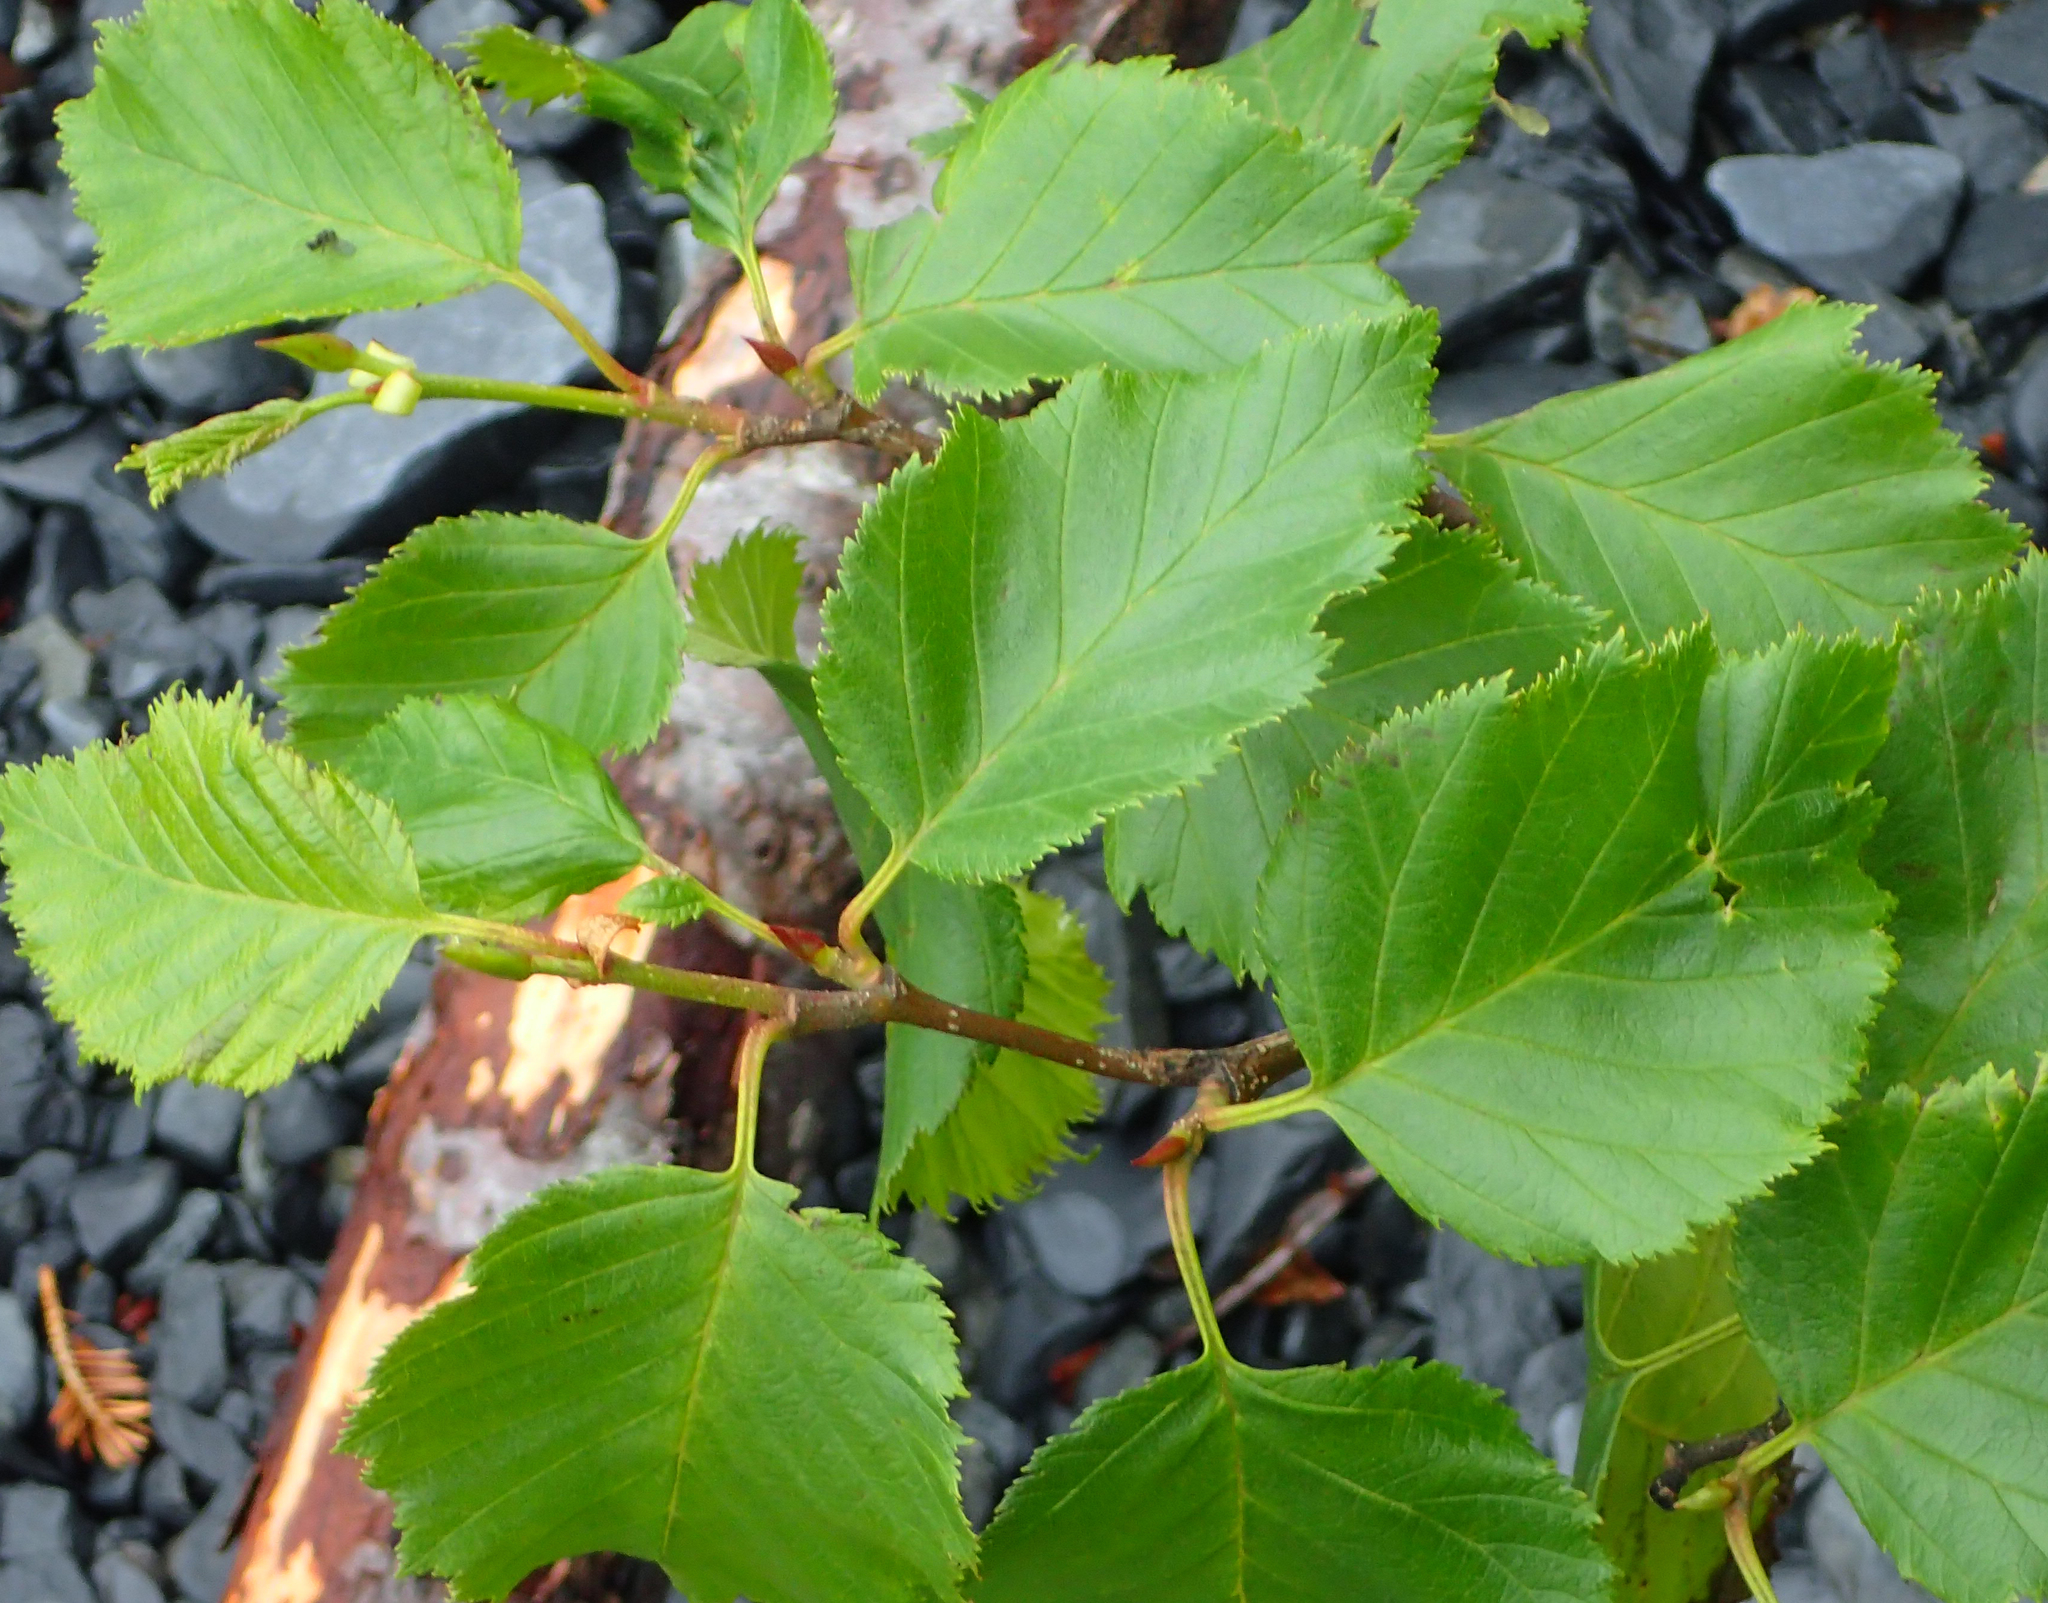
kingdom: Plantae
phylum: Tracheophyta
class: Magnoliopsida
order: Fagales
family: Betulaceae
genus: Alnus
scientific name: Alnus alnobetula
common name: Green alder
